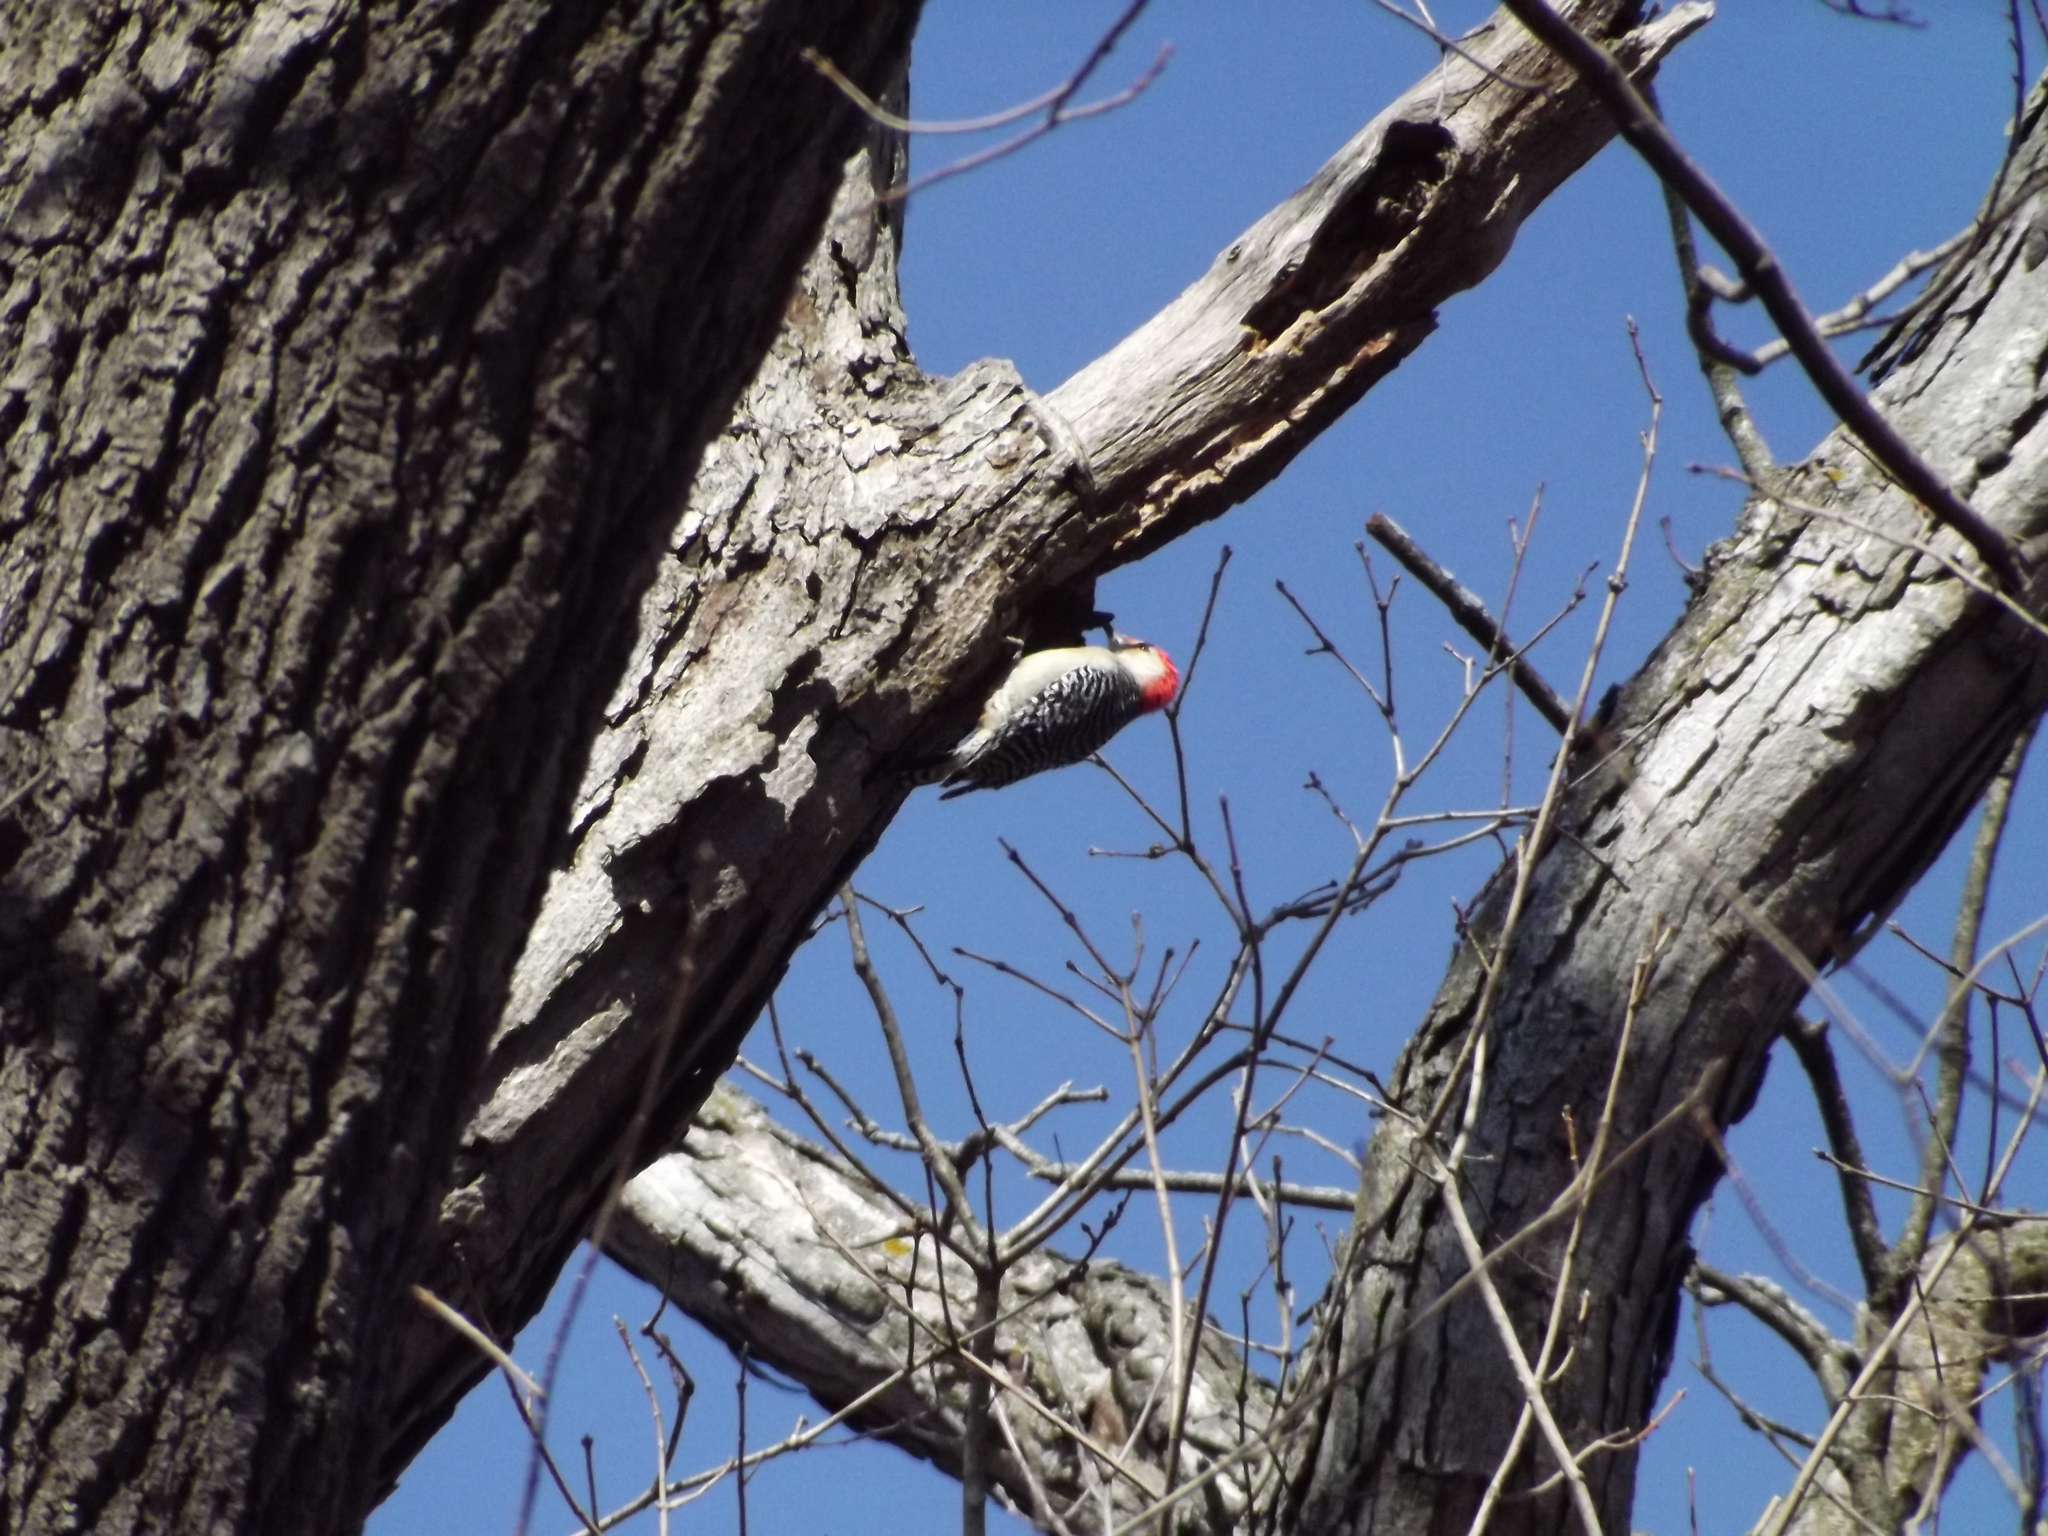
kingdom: Animalia
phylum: Chordata
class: Aves
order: Piciformes
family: Picidae
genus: Melanerpes
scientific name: Melanerpes carolinus
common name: Red-bellied woodpecker
